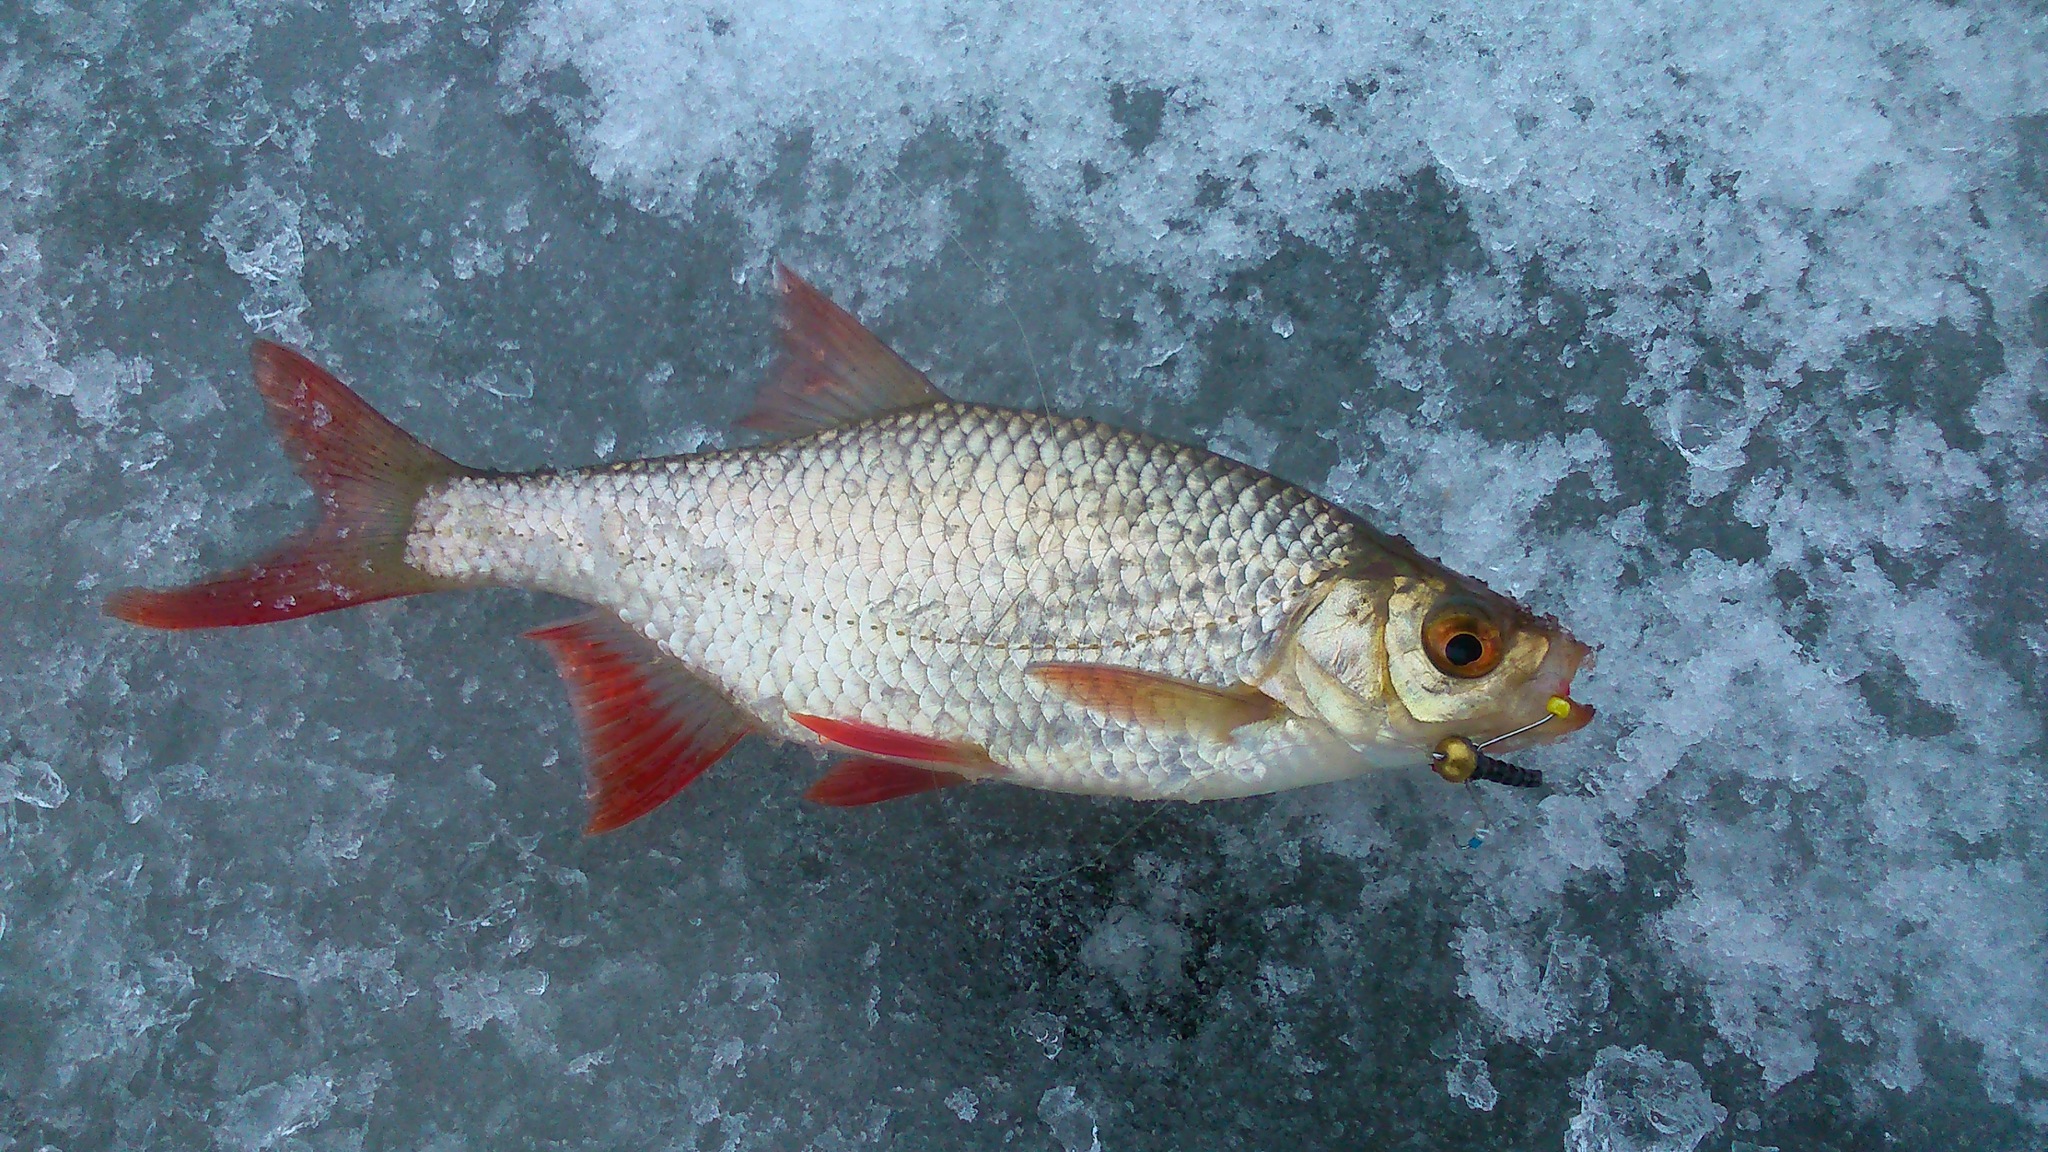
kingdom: Animalia
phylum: Chordata
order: Cypriniformes
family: Cyprinidae
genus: Scardinius
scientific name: Scardinius erythrophthalmus
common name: Rudd
